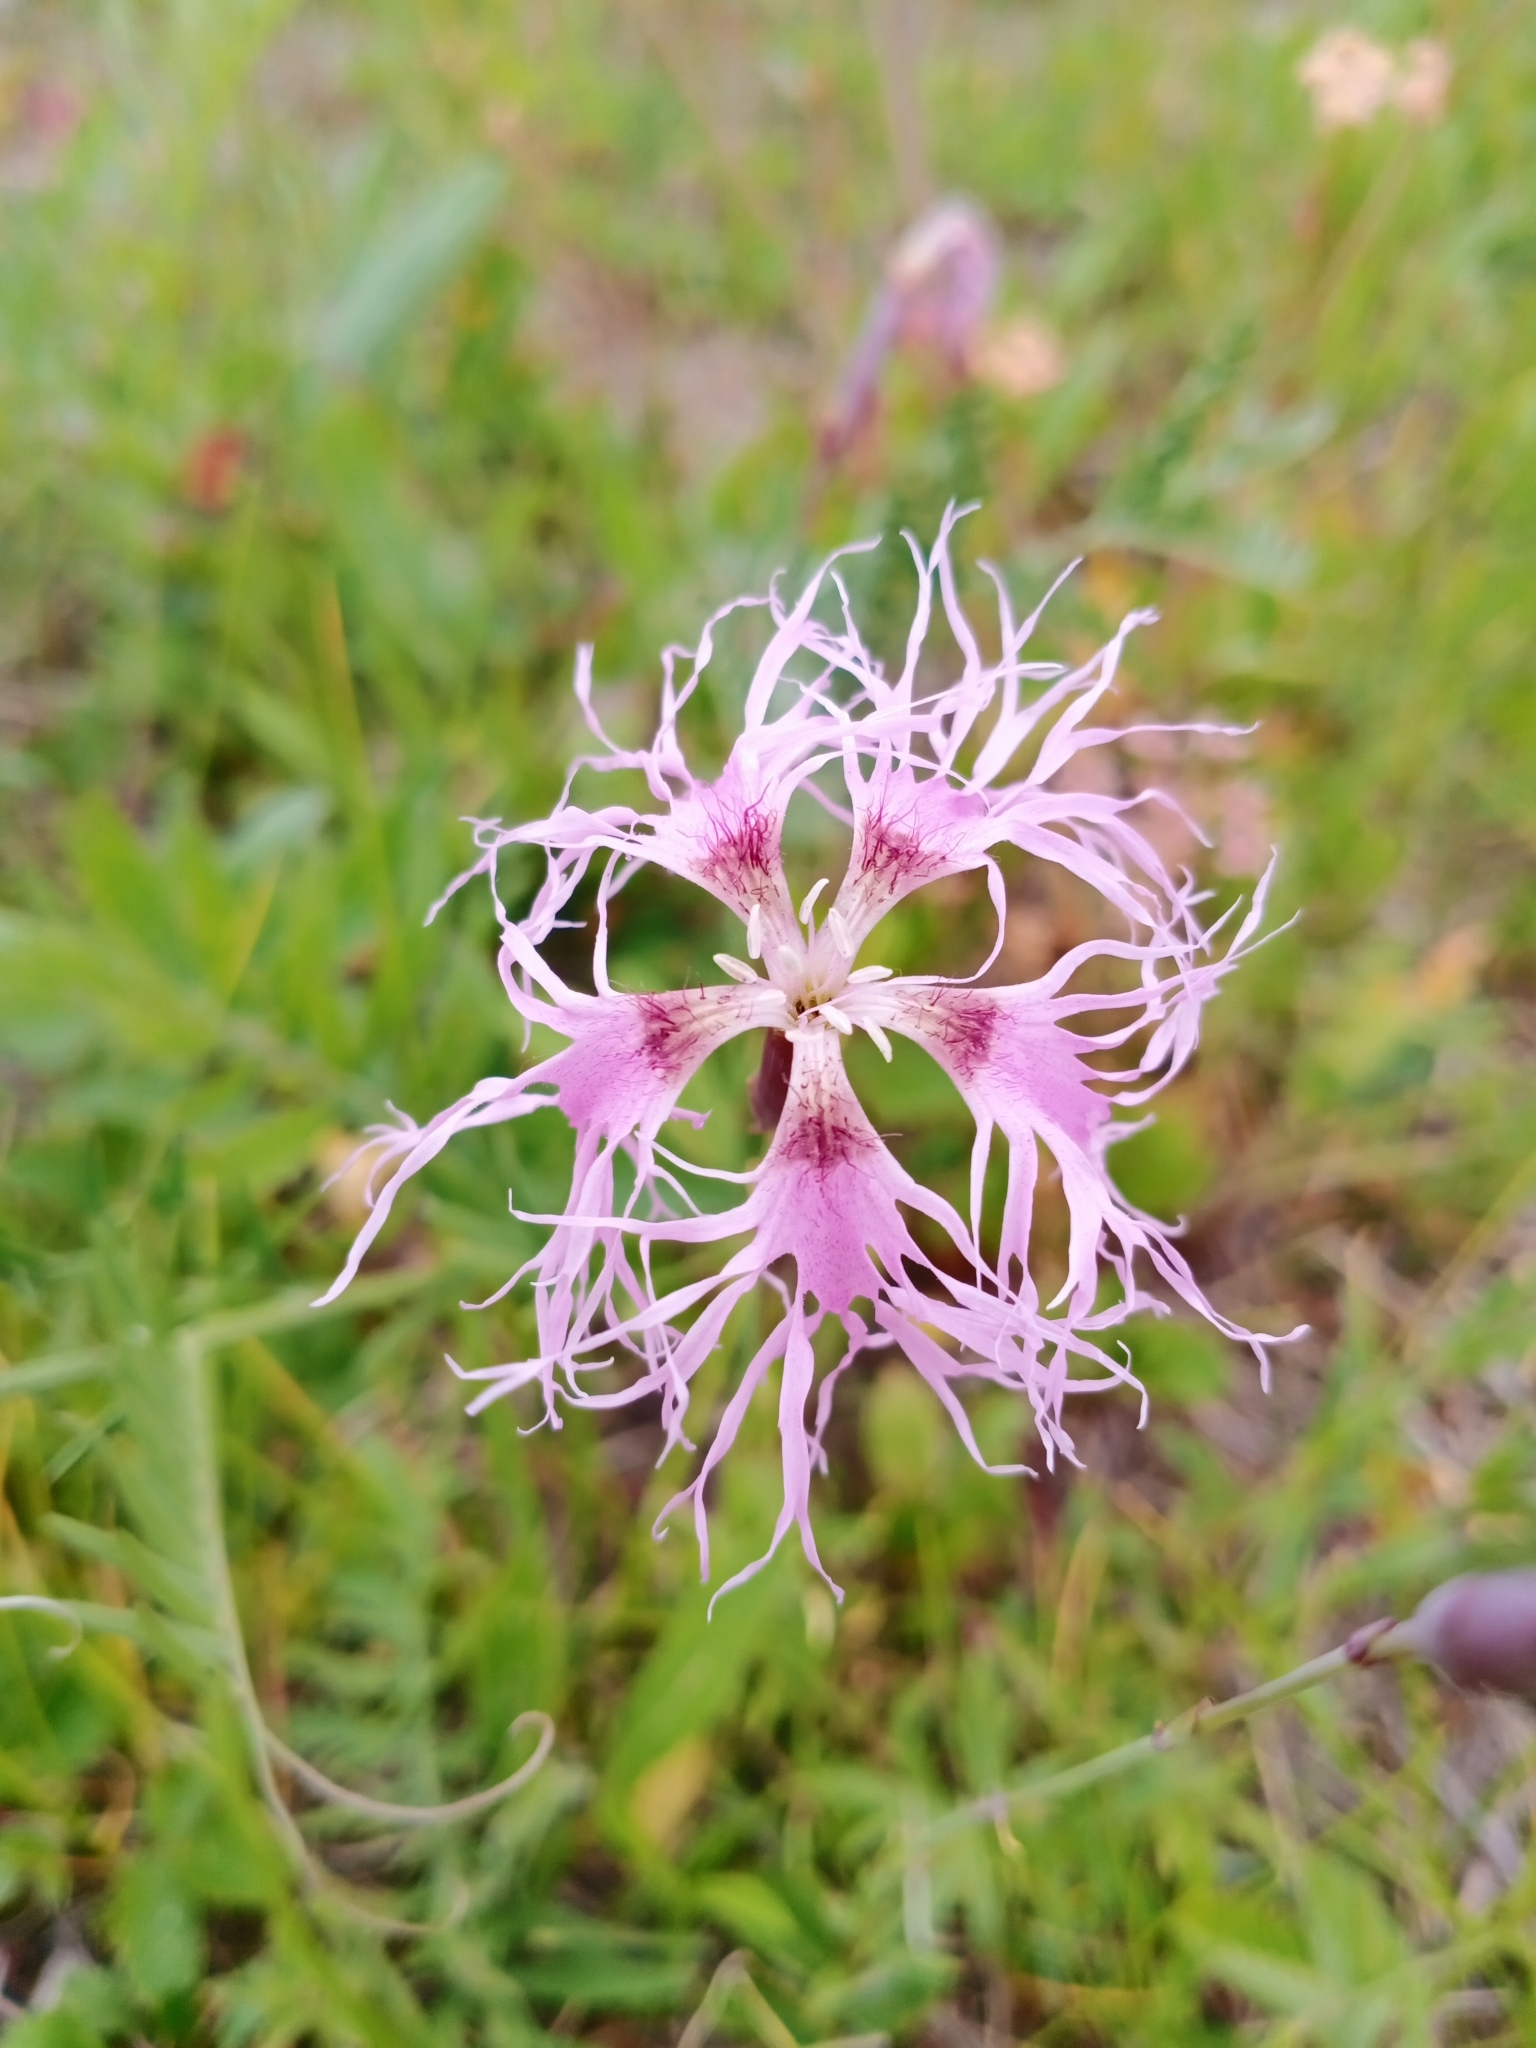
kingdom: Plantae
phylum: Tracheophyta
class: Magnoliopsida
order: Caryophyllales
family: Caryophyllaceae
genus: Dianthus
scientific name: Dianthus superbus
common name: Fringed pink
